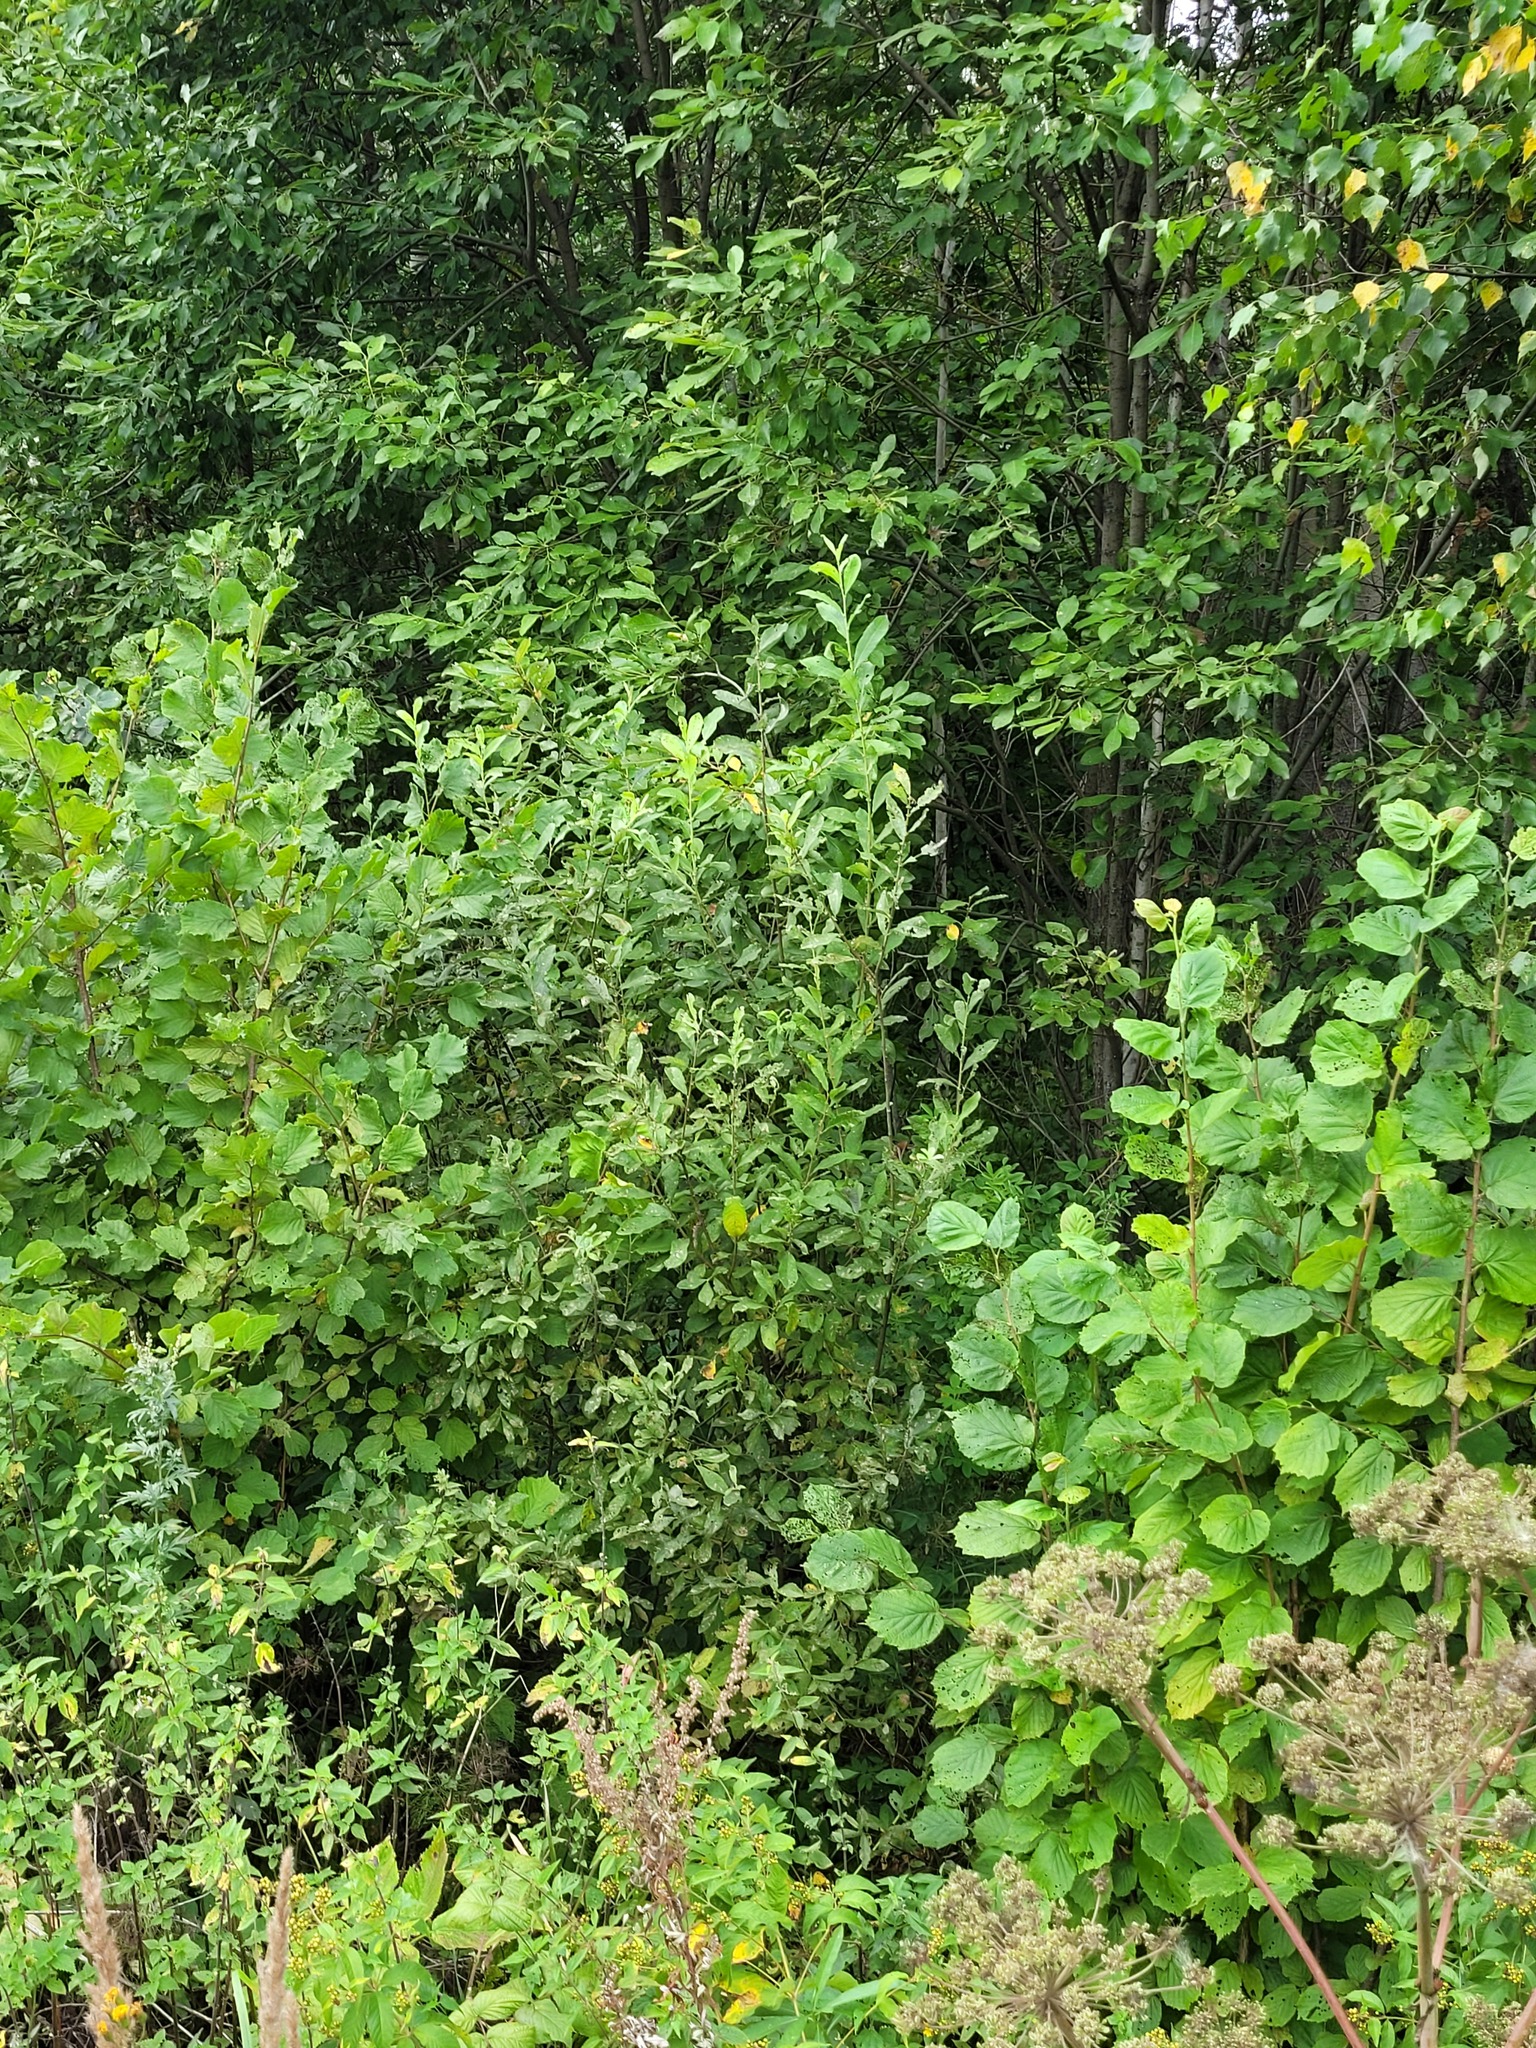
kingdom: Plantae
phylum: Tracheophyta
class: Magnoliopsida
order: Malpighiales
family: Salicaceae
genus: Salix
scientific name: Salix cinerea
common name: Common sallow
